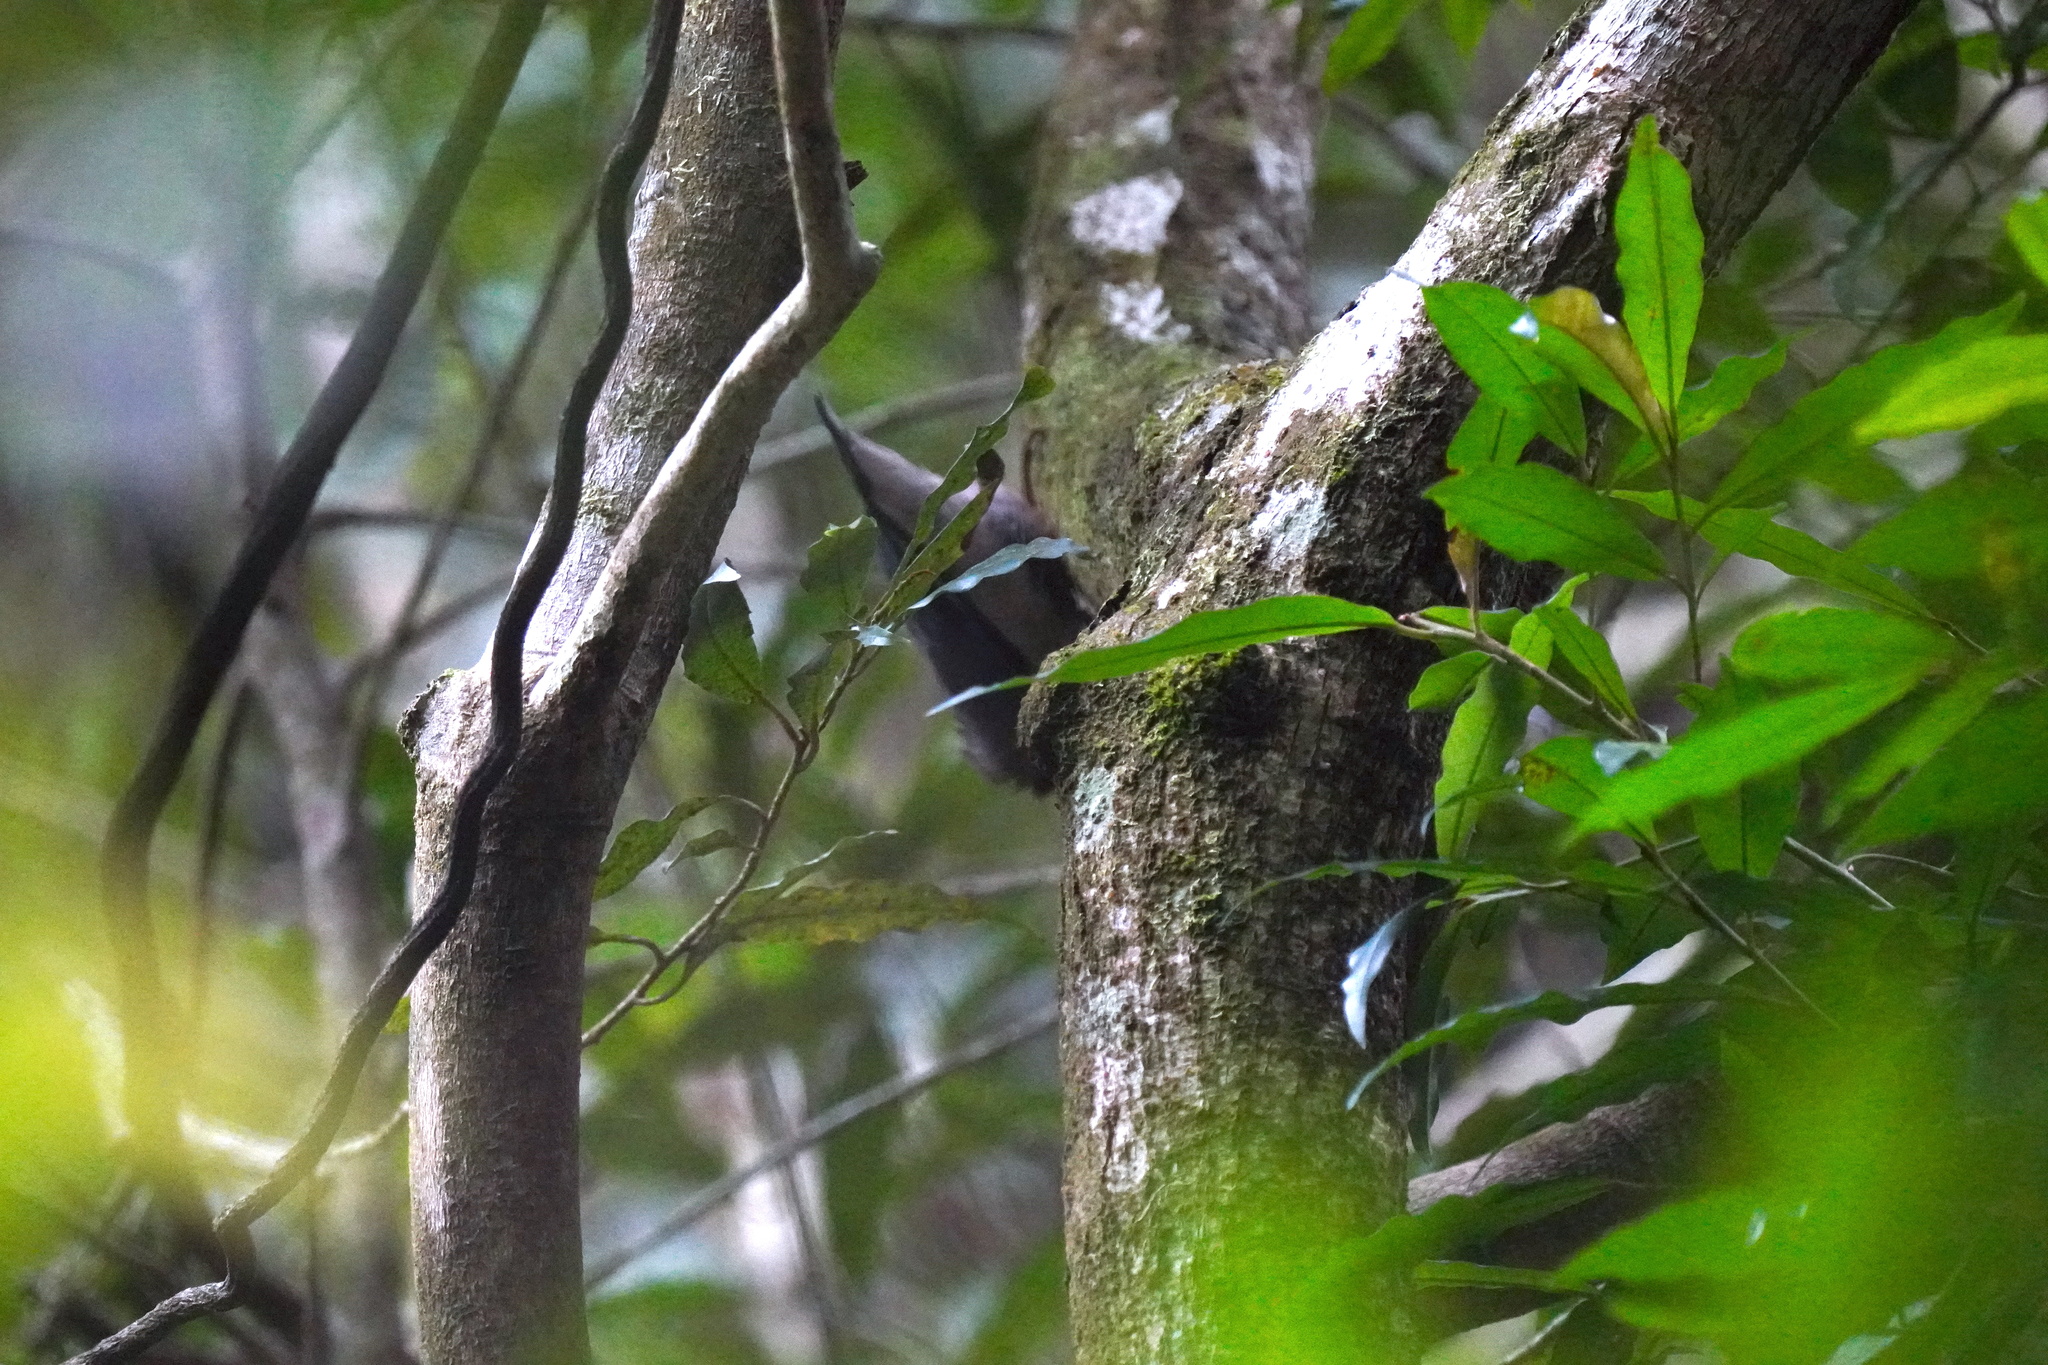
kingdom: Animalia
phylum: Chordata
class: Aves
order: Passeriformes
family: Sittidae
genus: Sitta
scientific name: Sitta frontalis
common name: Velvet-fronted nuthatch
